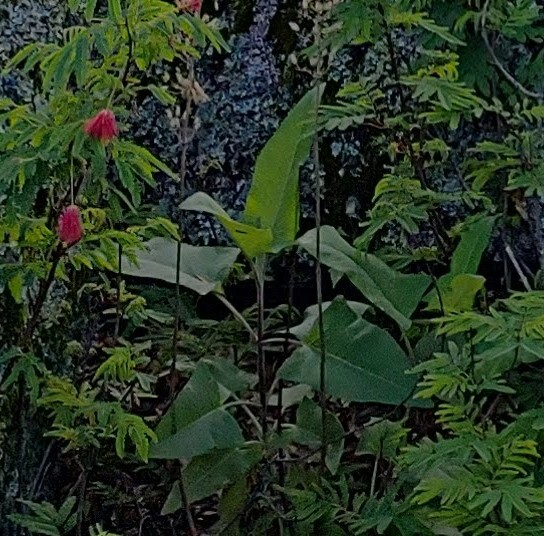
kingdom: Plantae
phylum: Tracheophyta
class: Magnoliopsida
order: Lamiales
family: Lamiaceae
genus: Lepechinia
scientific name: Lepechinia hastata
